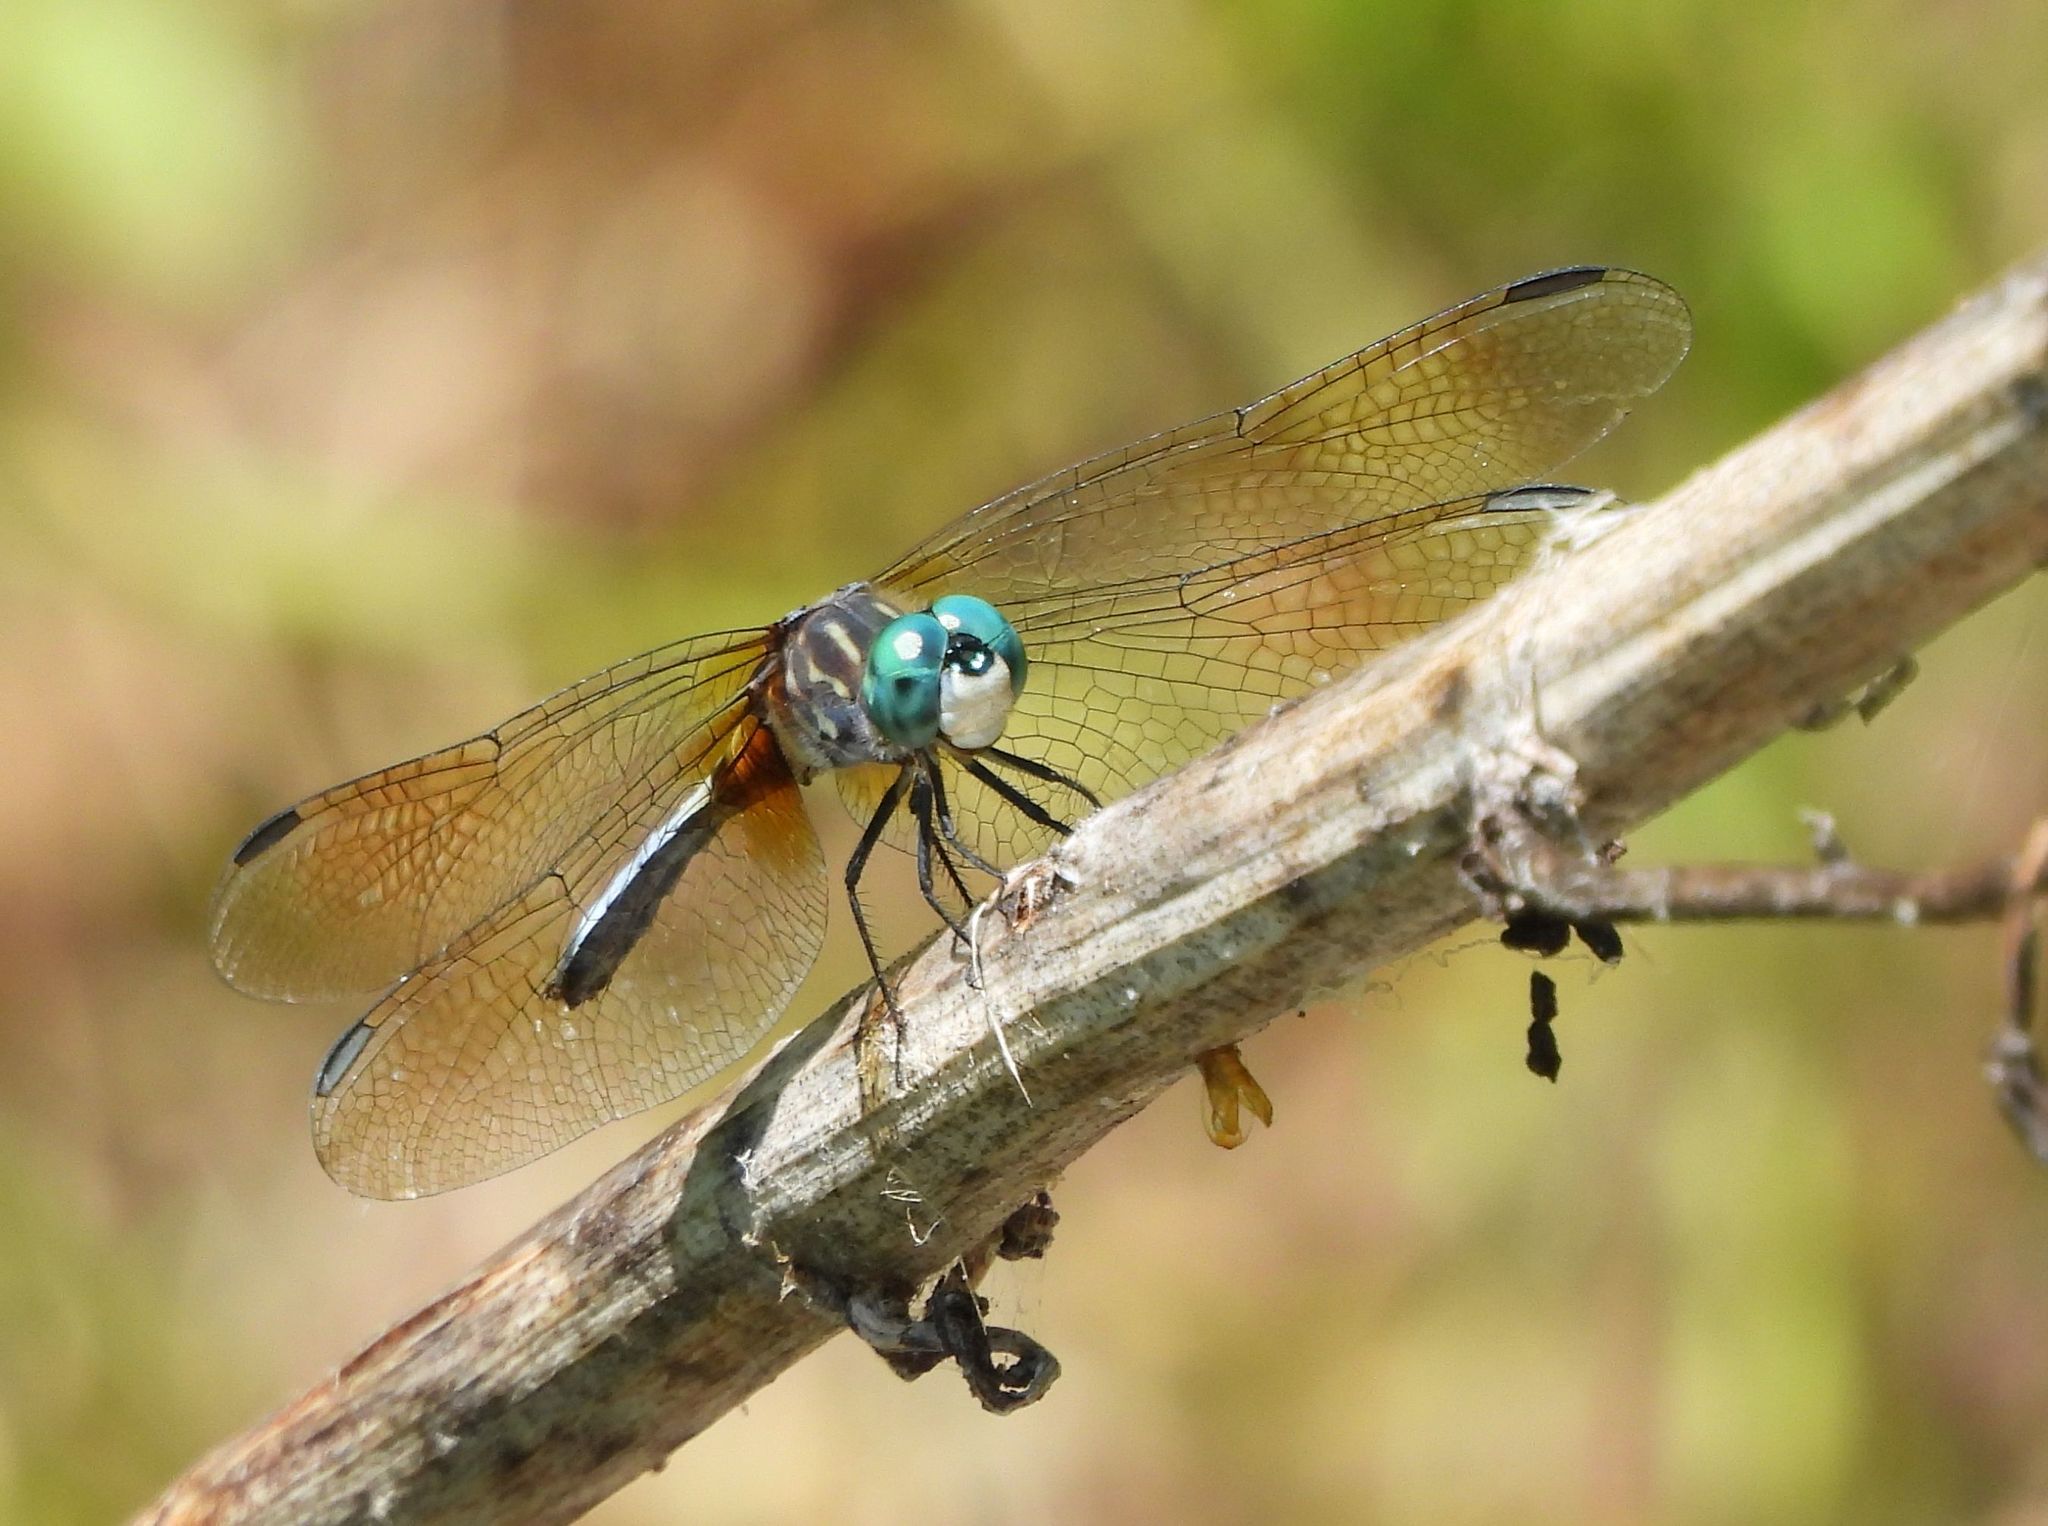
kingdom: Animalia
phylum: Arthropoda
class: Insecta
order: Odonata
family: Libellulidae
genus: Pachydiplax
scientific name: Pachydiplax longipennis
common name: Blue dasher
